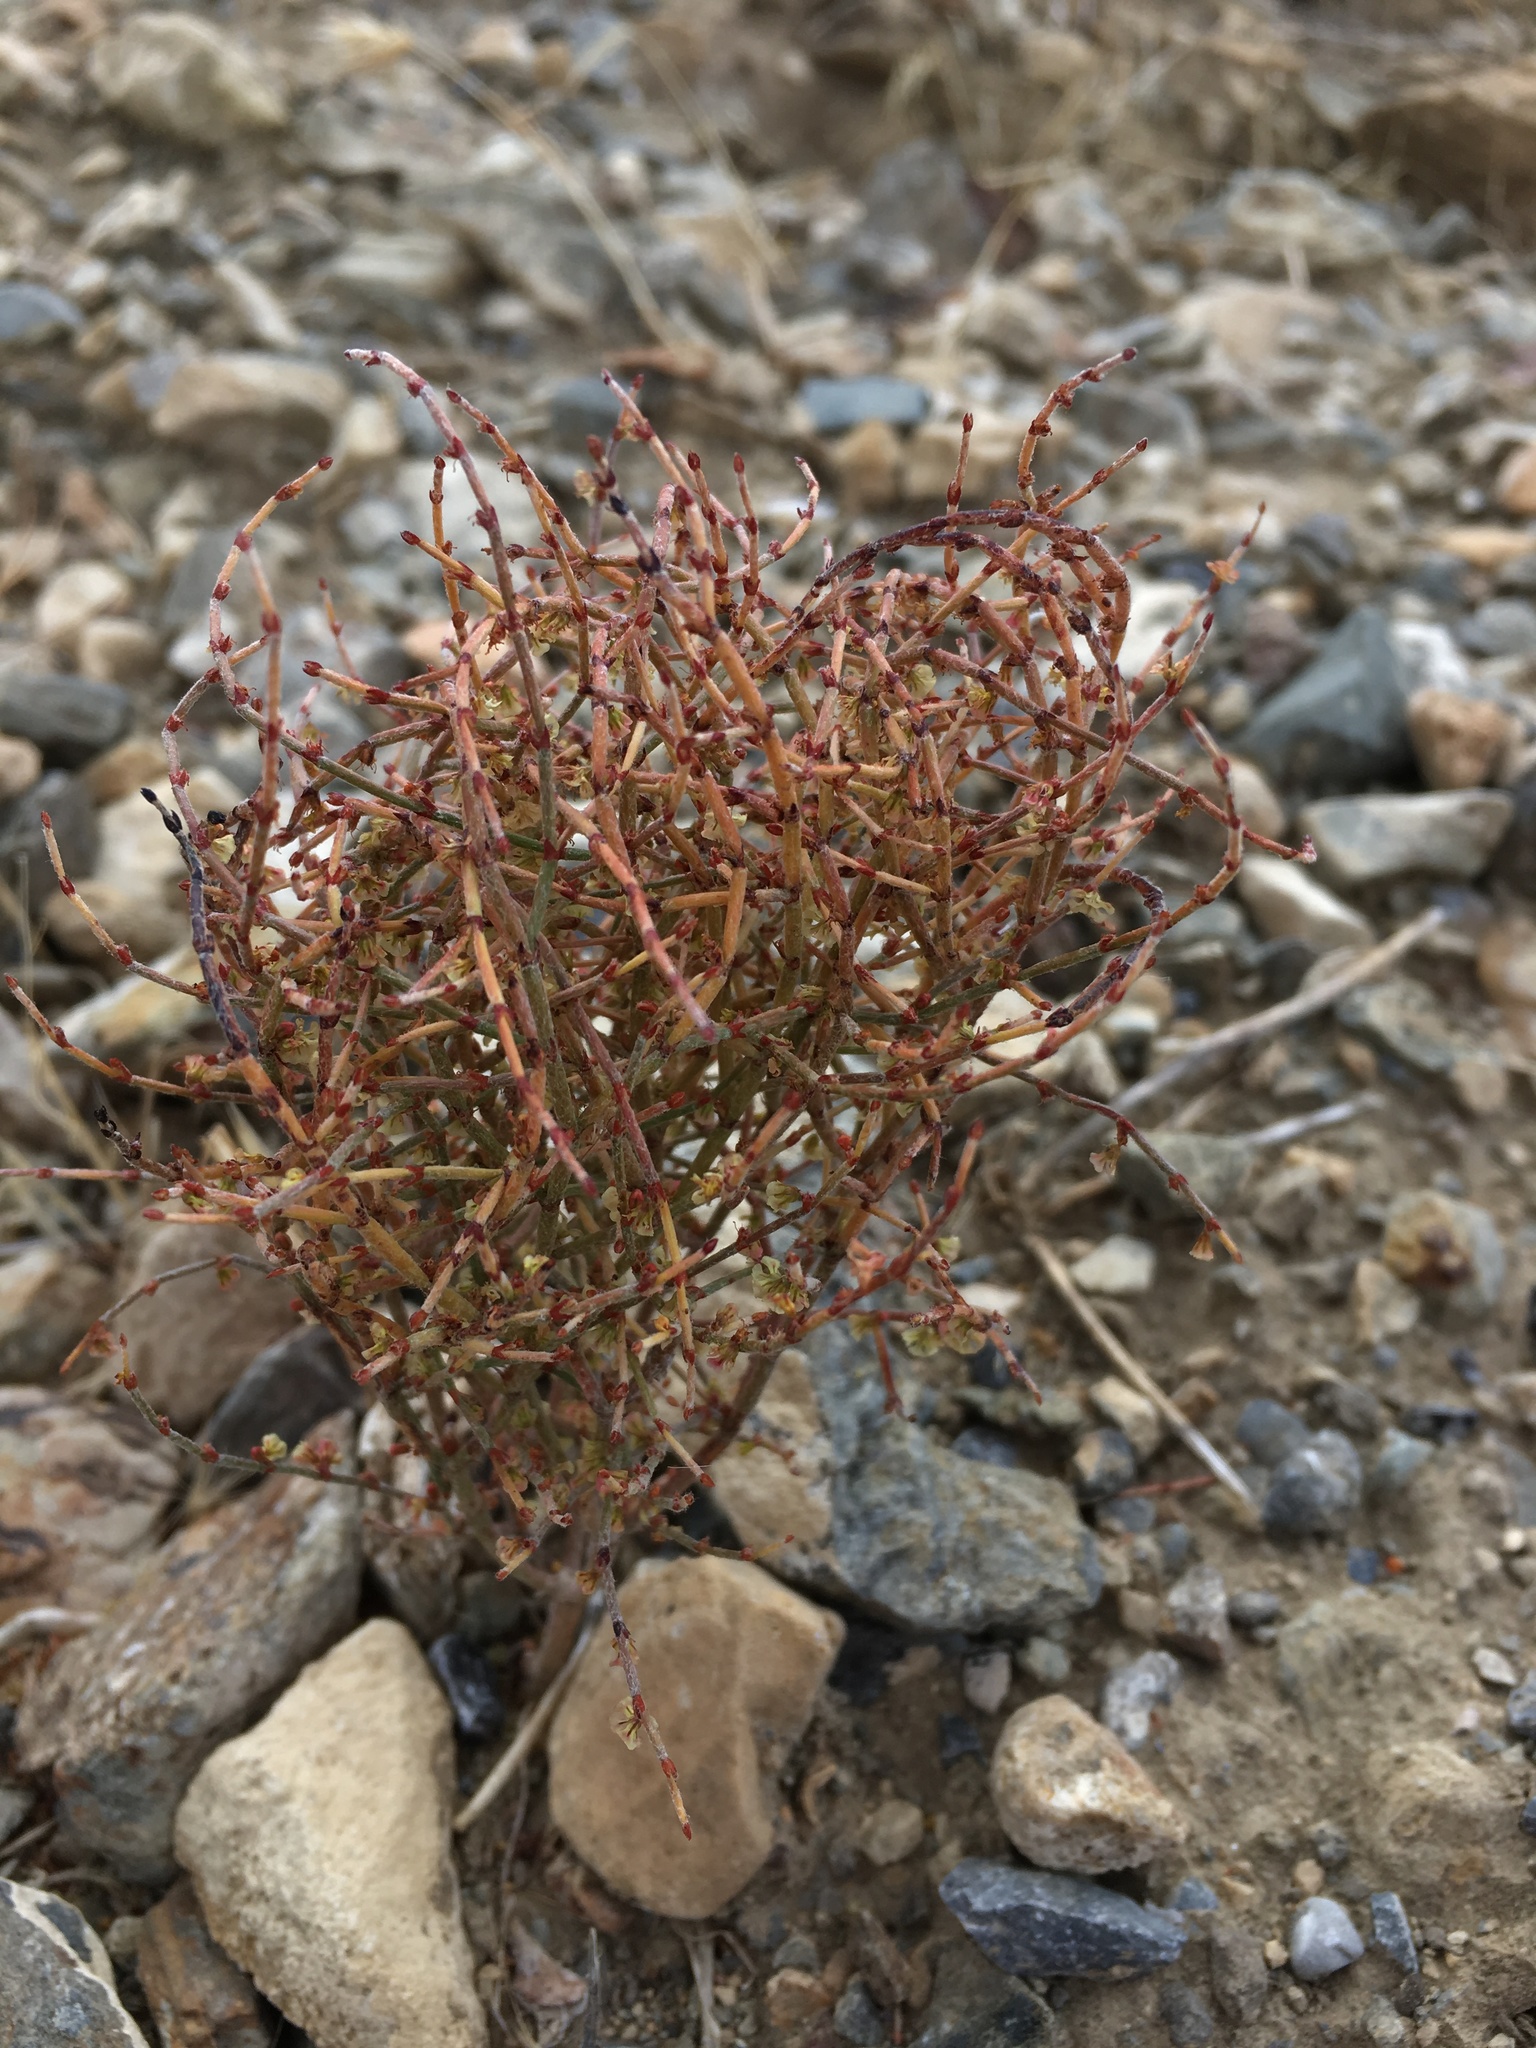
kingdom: Plantae
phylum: Tracheophyta
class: Magnoliopsida
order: Caryophyllales
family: Polygonaceae
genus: Eriogonum
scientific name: Eriogonum nidularium
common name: Bird's-nest wild buckwheat
